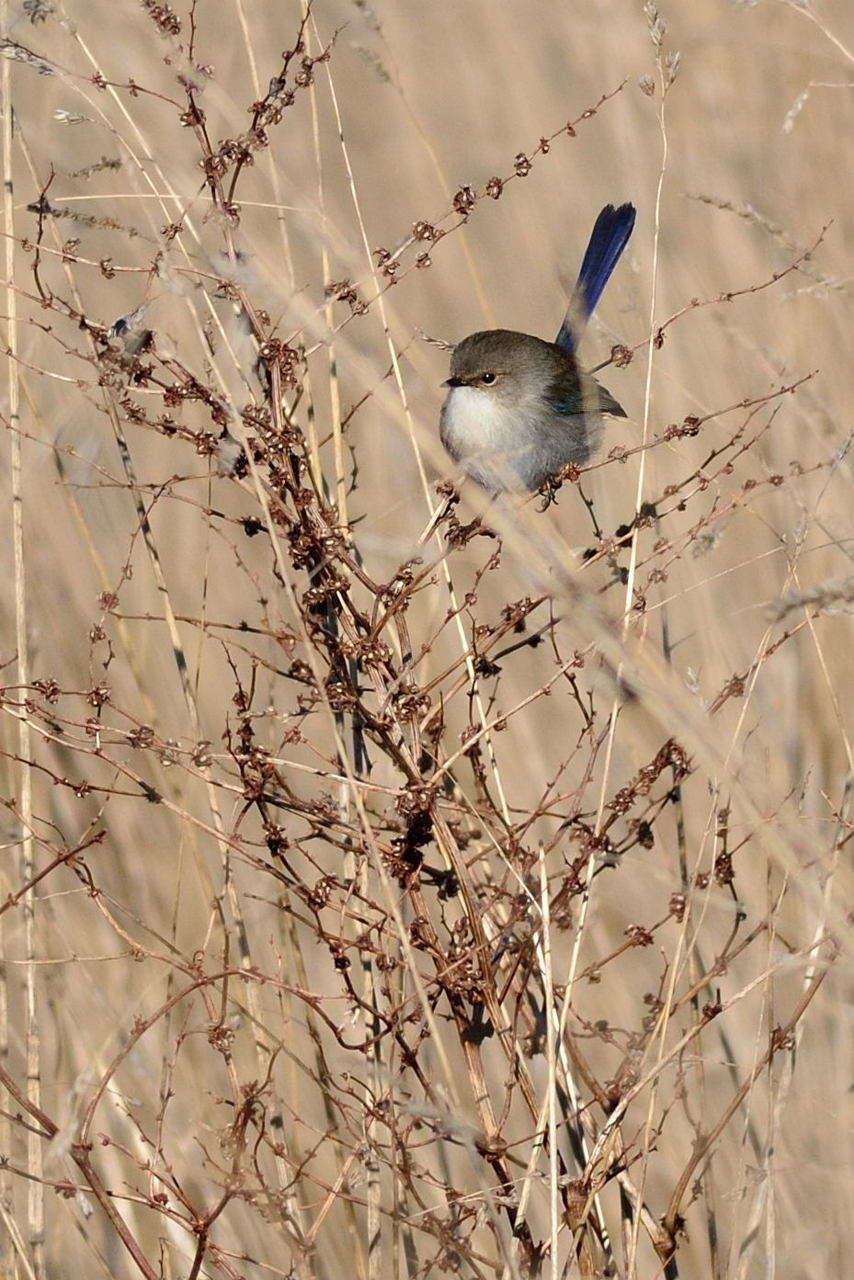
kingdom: Animalia
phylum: Chordata
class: Aves
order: Passeriformes
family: Maluridae
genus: Malurus
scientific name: Malurus cyaneus
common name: Superb fairywren
